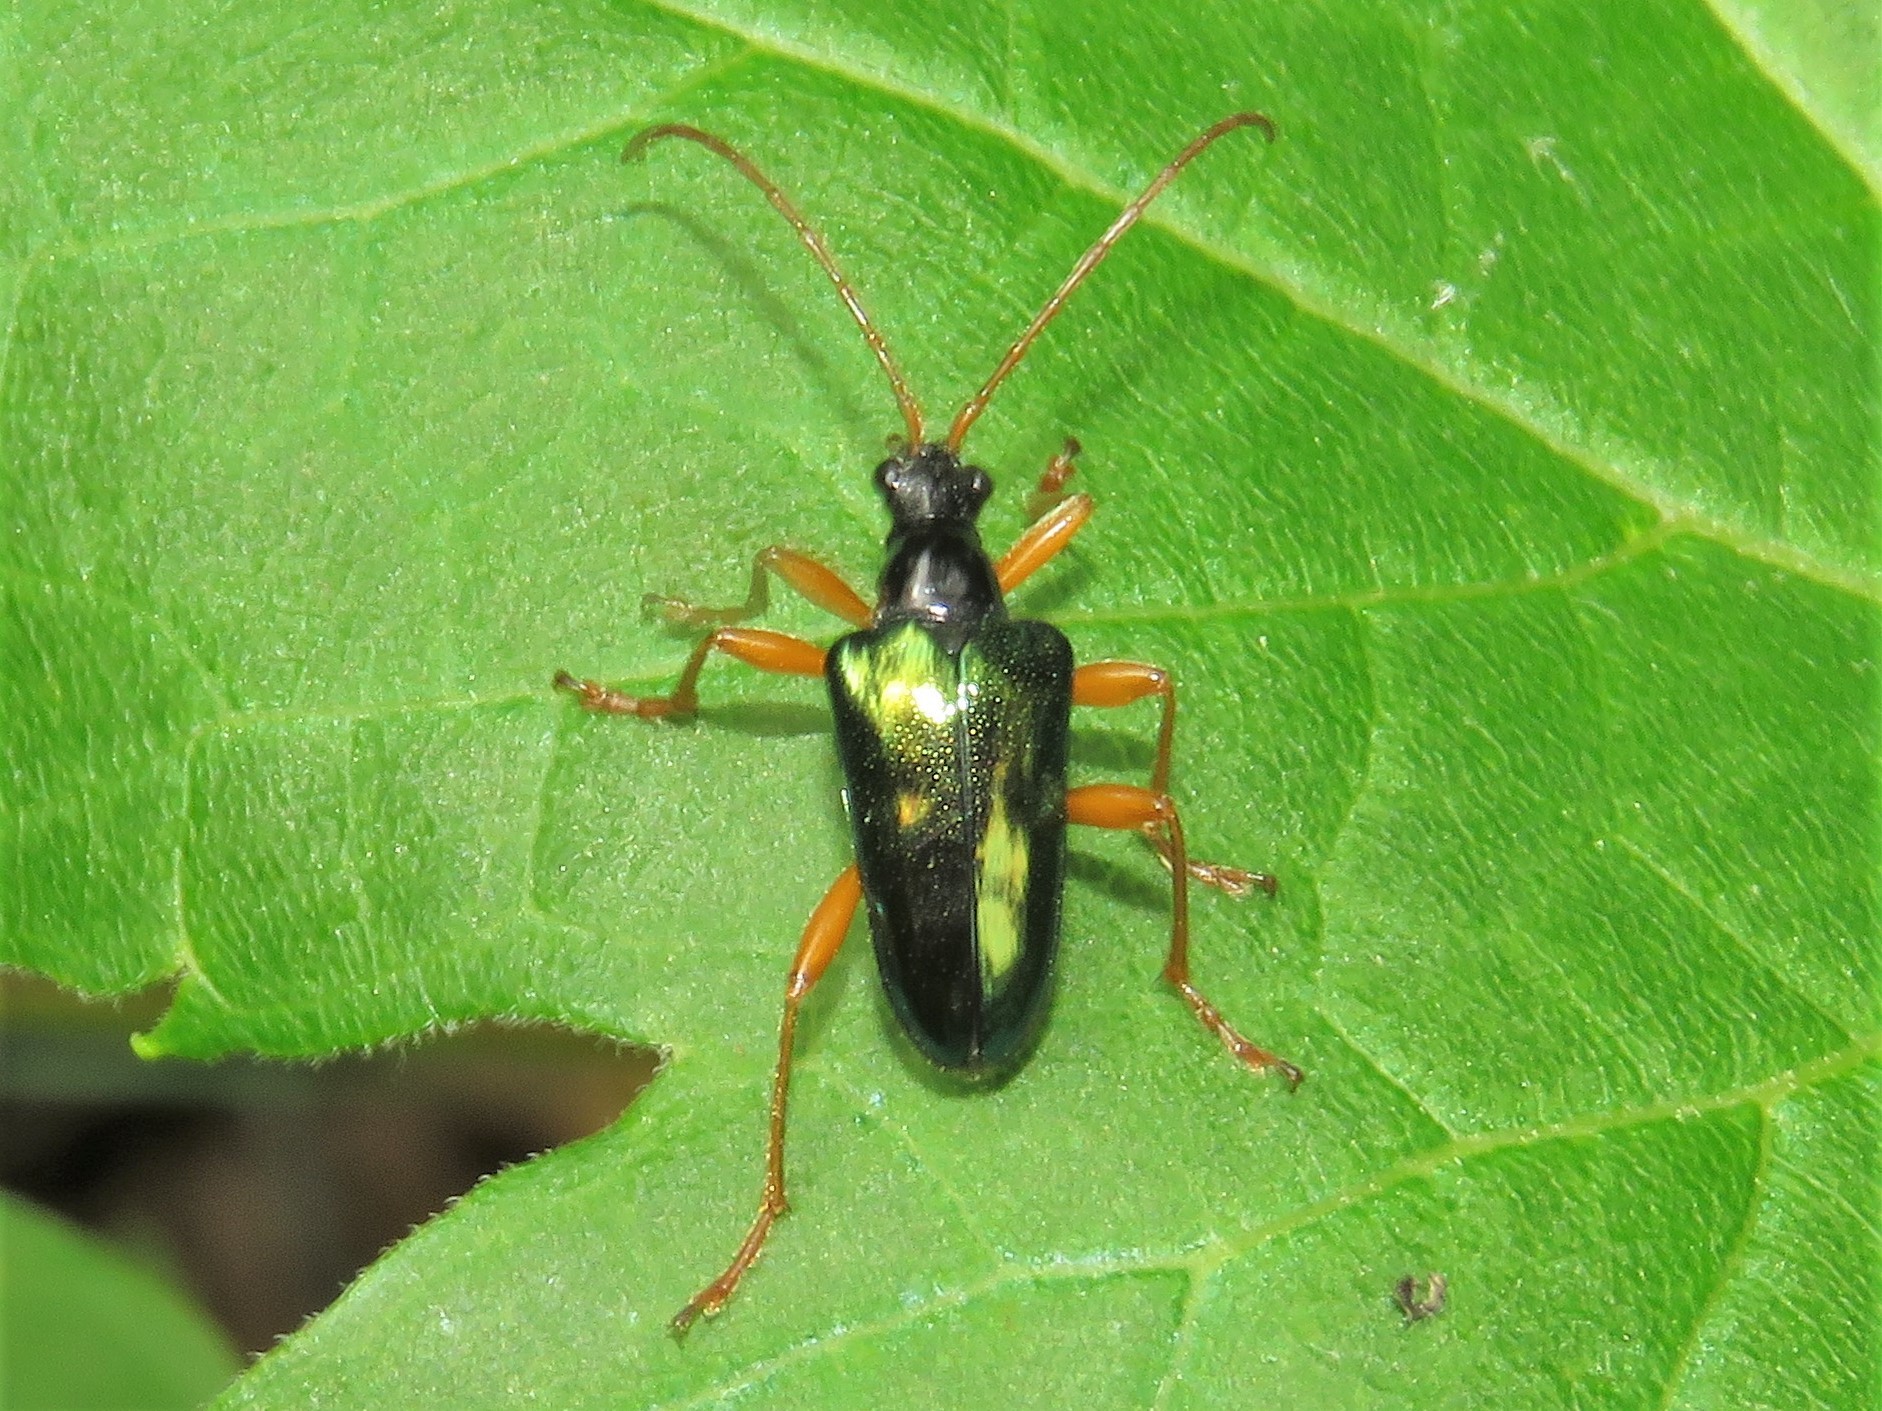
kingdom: Animalia
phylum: Arthropoda
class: Insecta
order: Coleoptera
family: Cerambycidae
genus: Gaurotes
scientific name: Gaurotes cyanipennis
